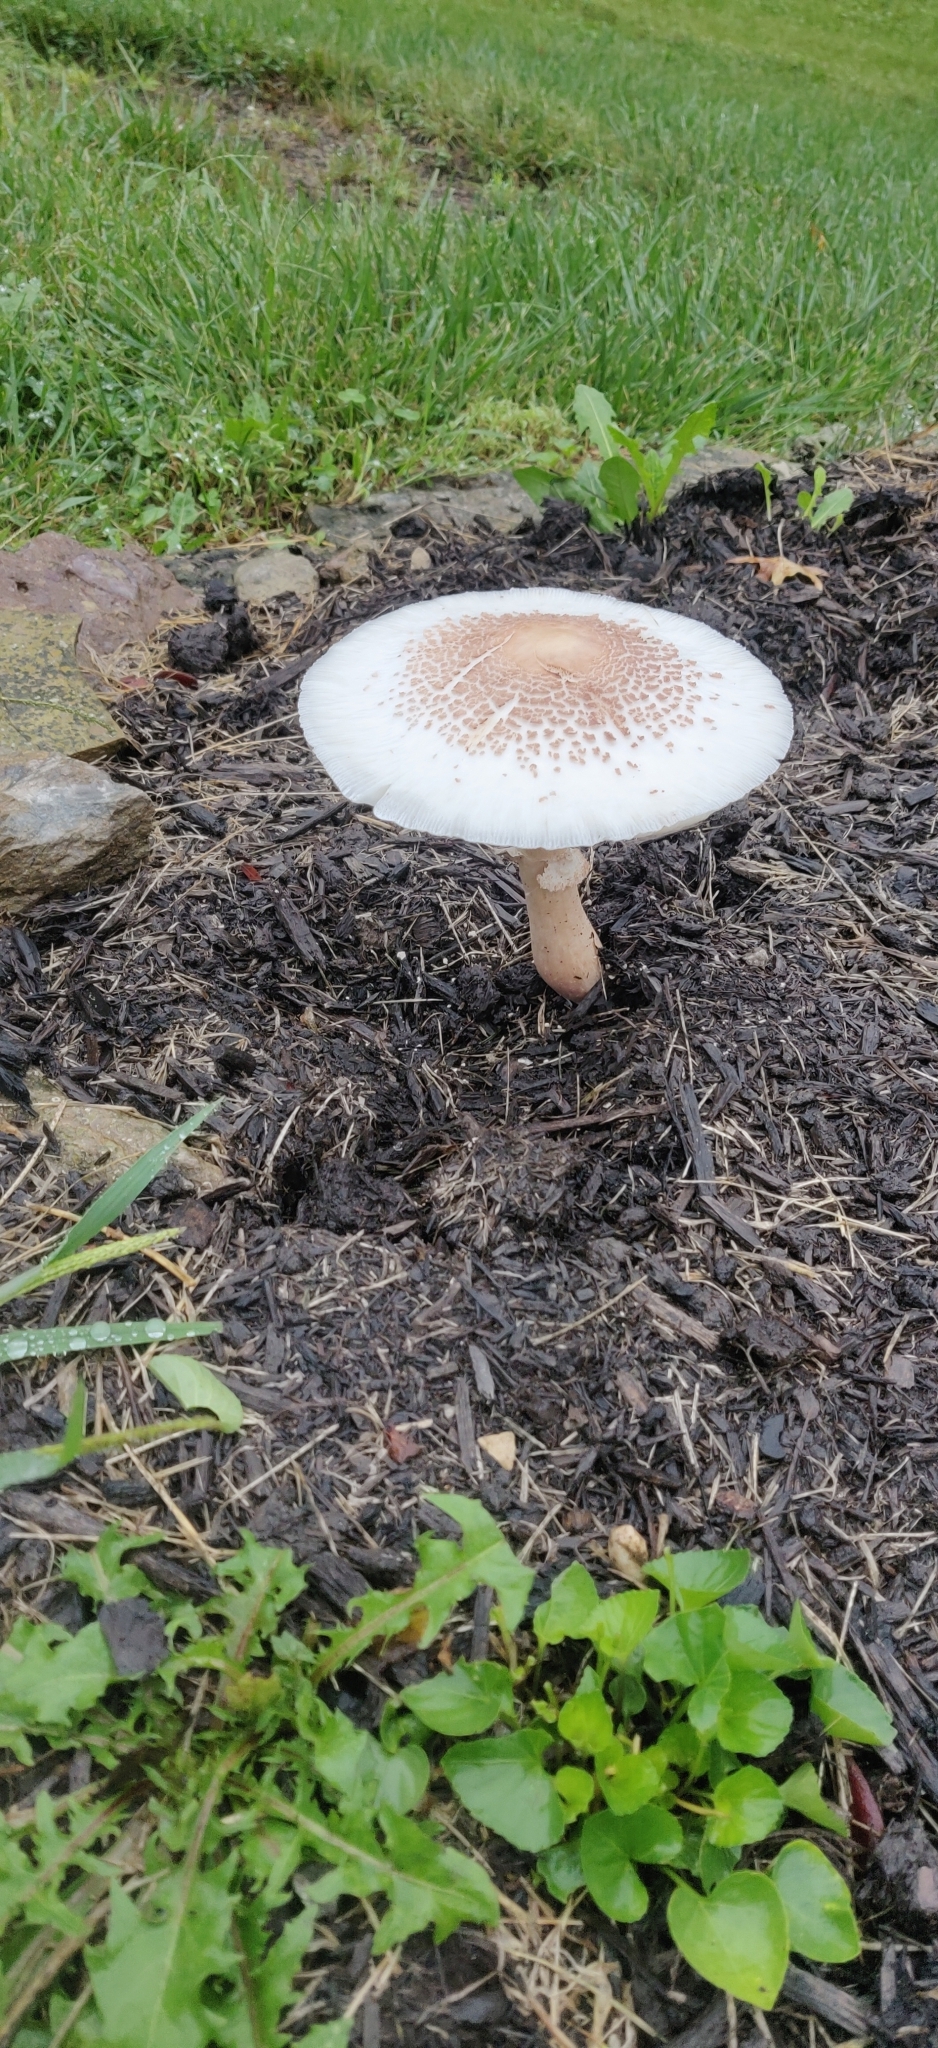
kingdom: Fungi
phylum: Basidiomycota
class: Agaricomycetes
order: Agaricales
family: Agaricaceae
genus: Leucoagaricus
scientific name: Leucoagaricus americanus
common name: Reddening lepiota
